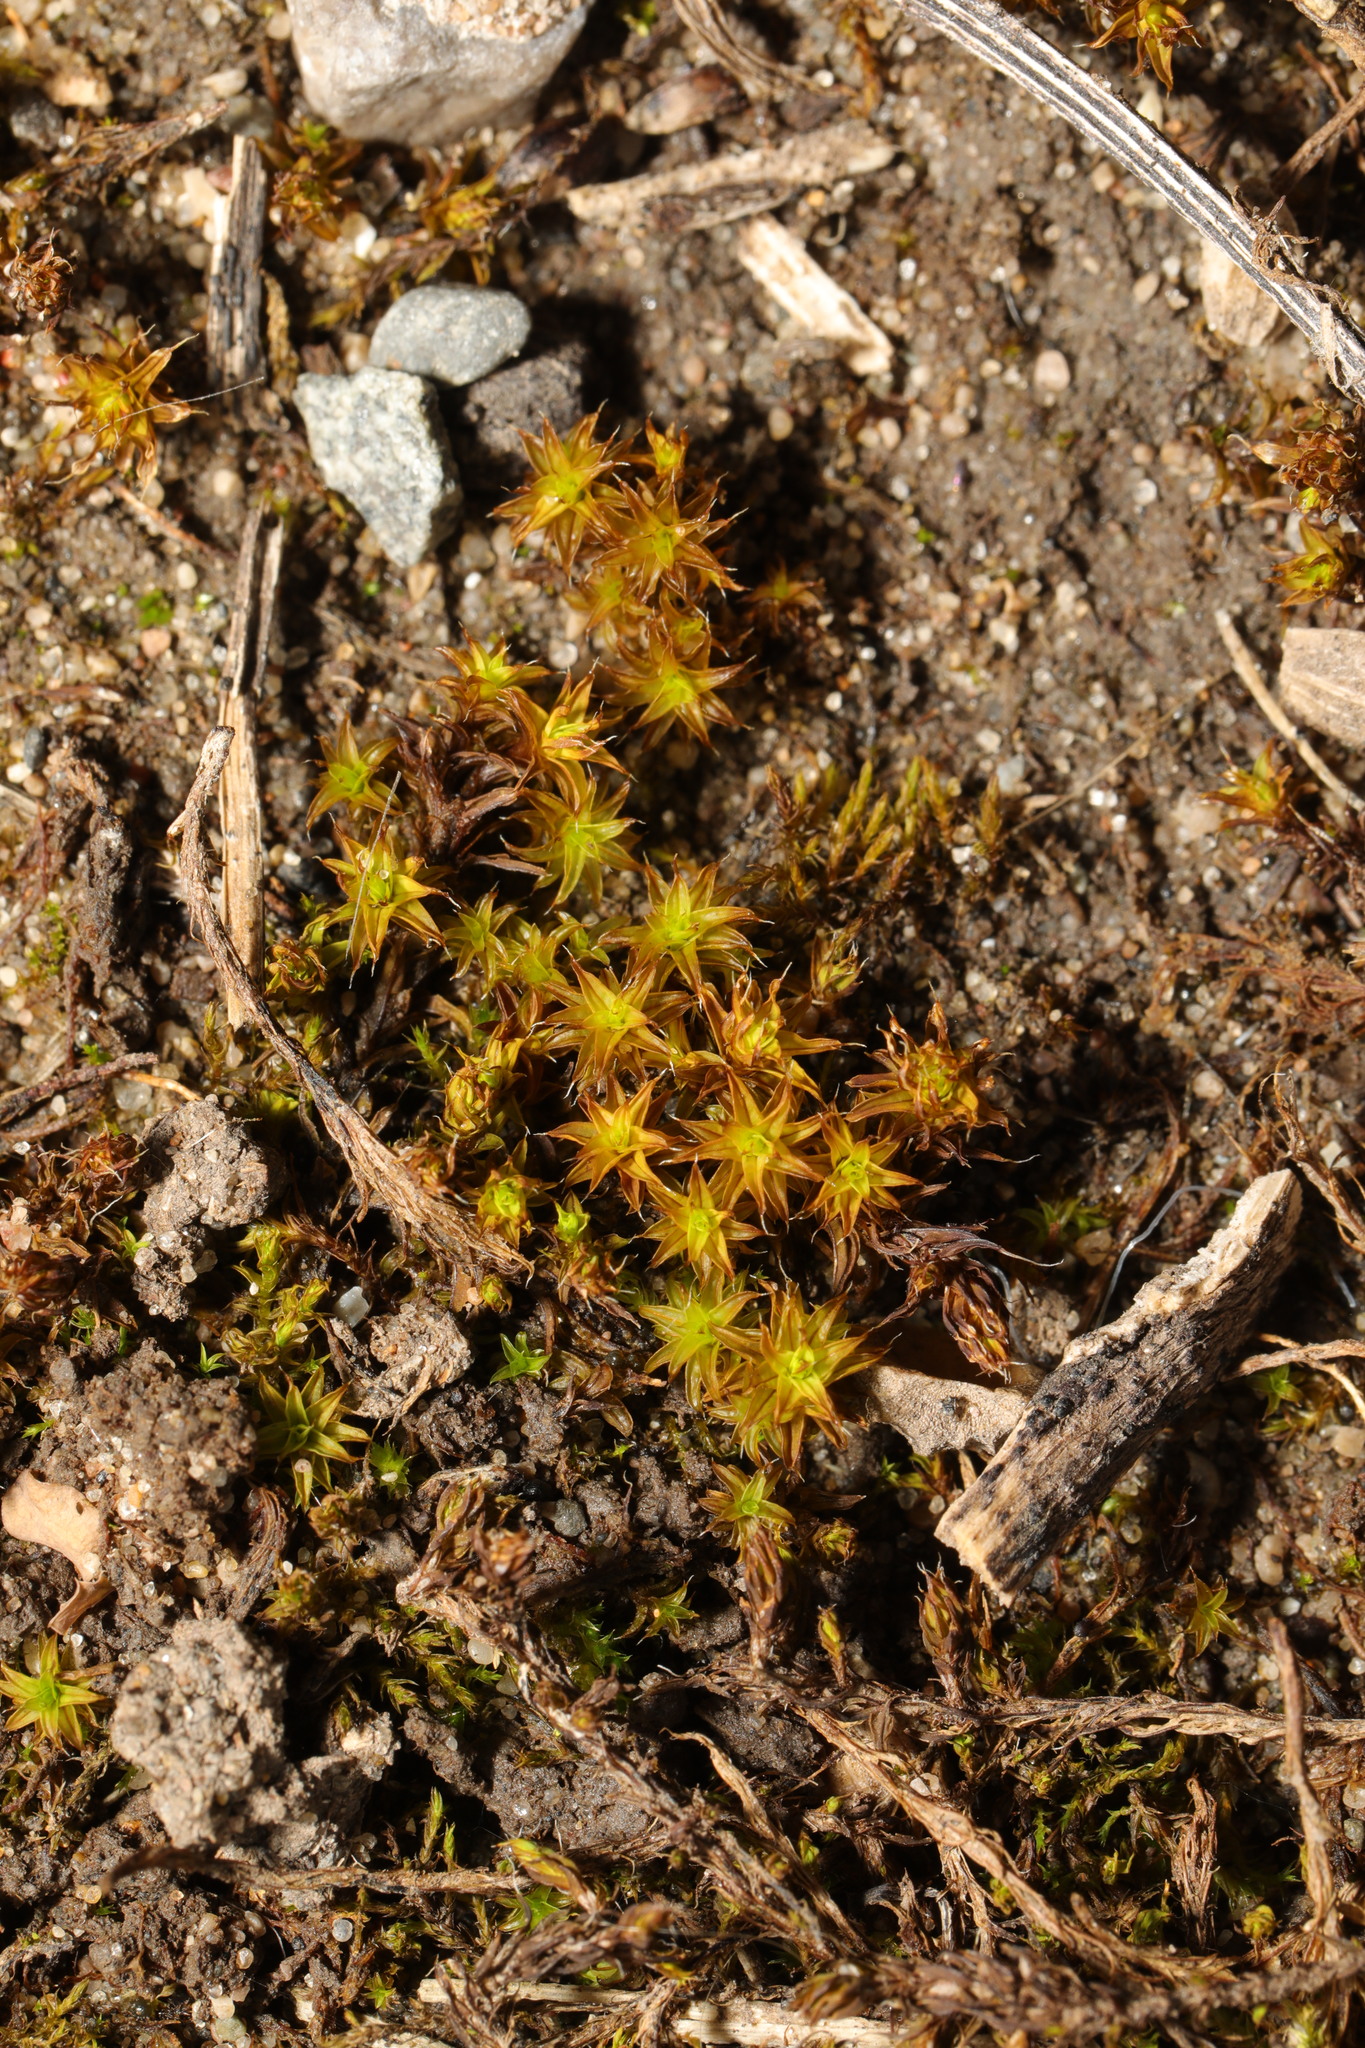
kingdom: Plantae
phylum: Bryophyta
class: Bryopsida
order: Pottiales
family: Pottiaceae
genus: Syntrichia
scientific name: Syntrichia ruralis
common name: Sidewalk screw moss
